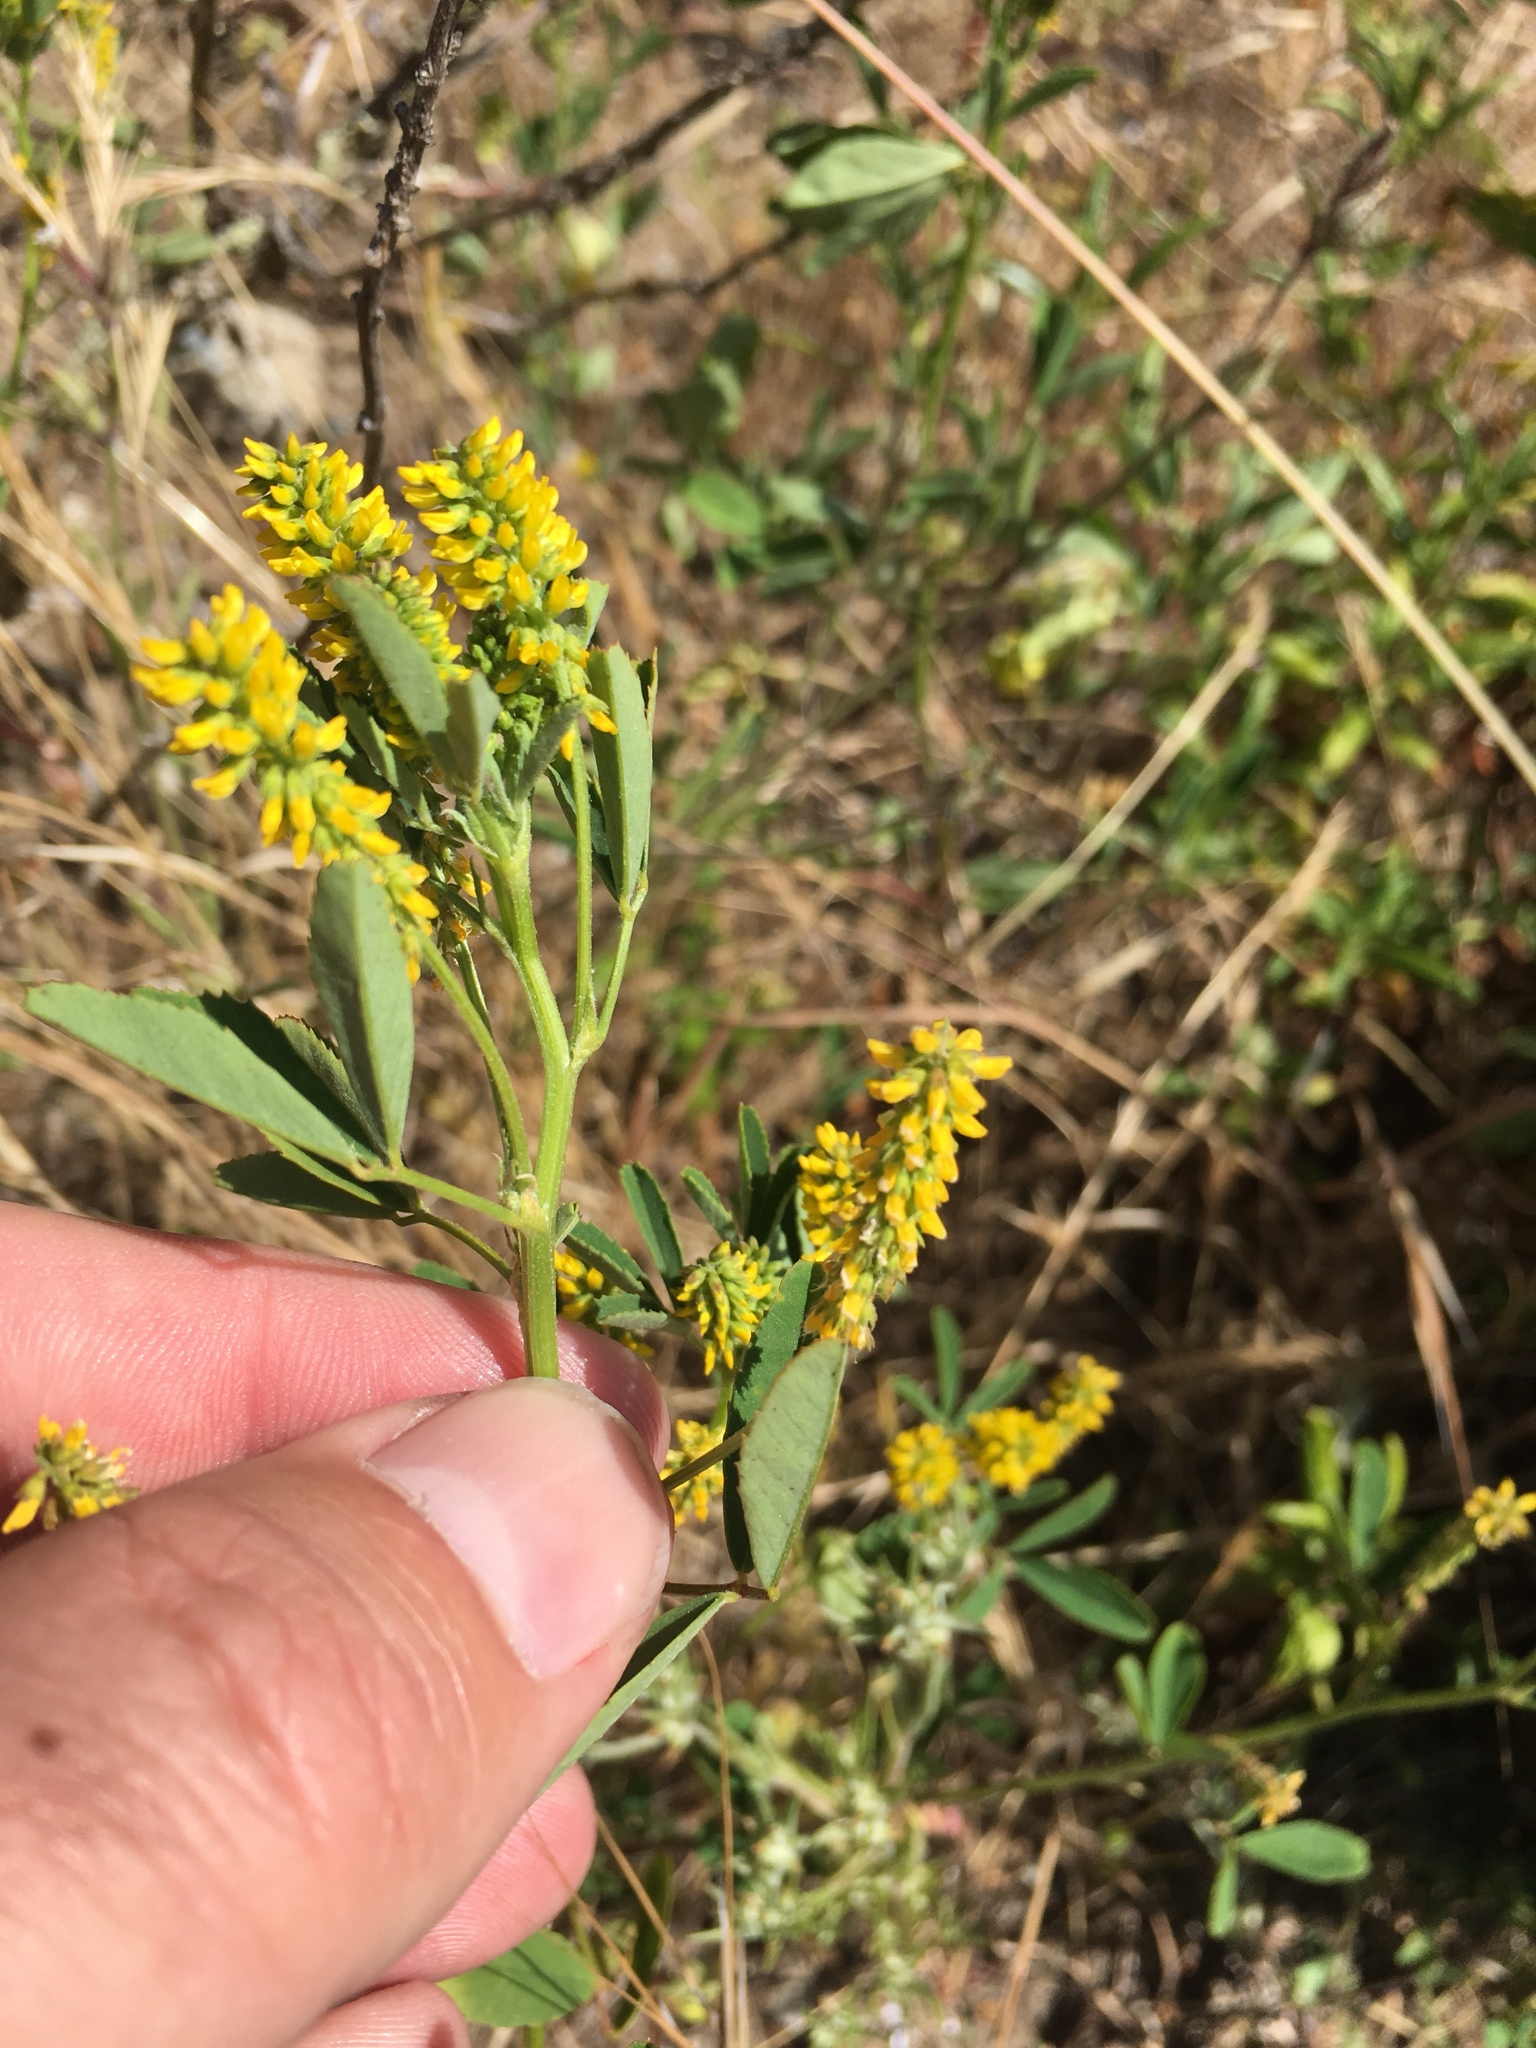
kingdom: Plantae
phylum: Tracheophyta
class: Magnoliopsida
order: Fabales
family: Fabaceae
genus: Melilotus
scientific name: Melilotus indicus
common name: Small melilot
